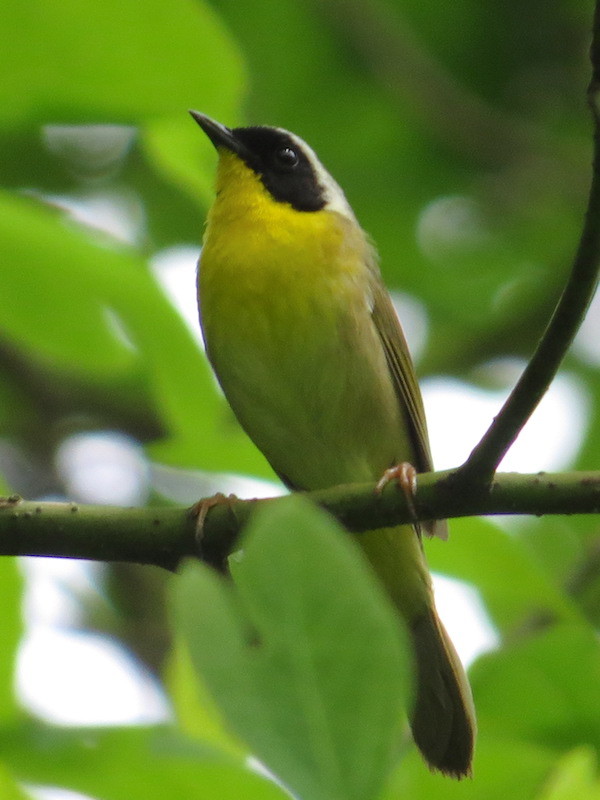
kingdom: Animalia
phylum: Chordata
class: Aves
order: Passeriformes
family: Parulidae
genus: Geothlypis
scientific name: Geothlypis trichas
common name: Common yellowthroat
